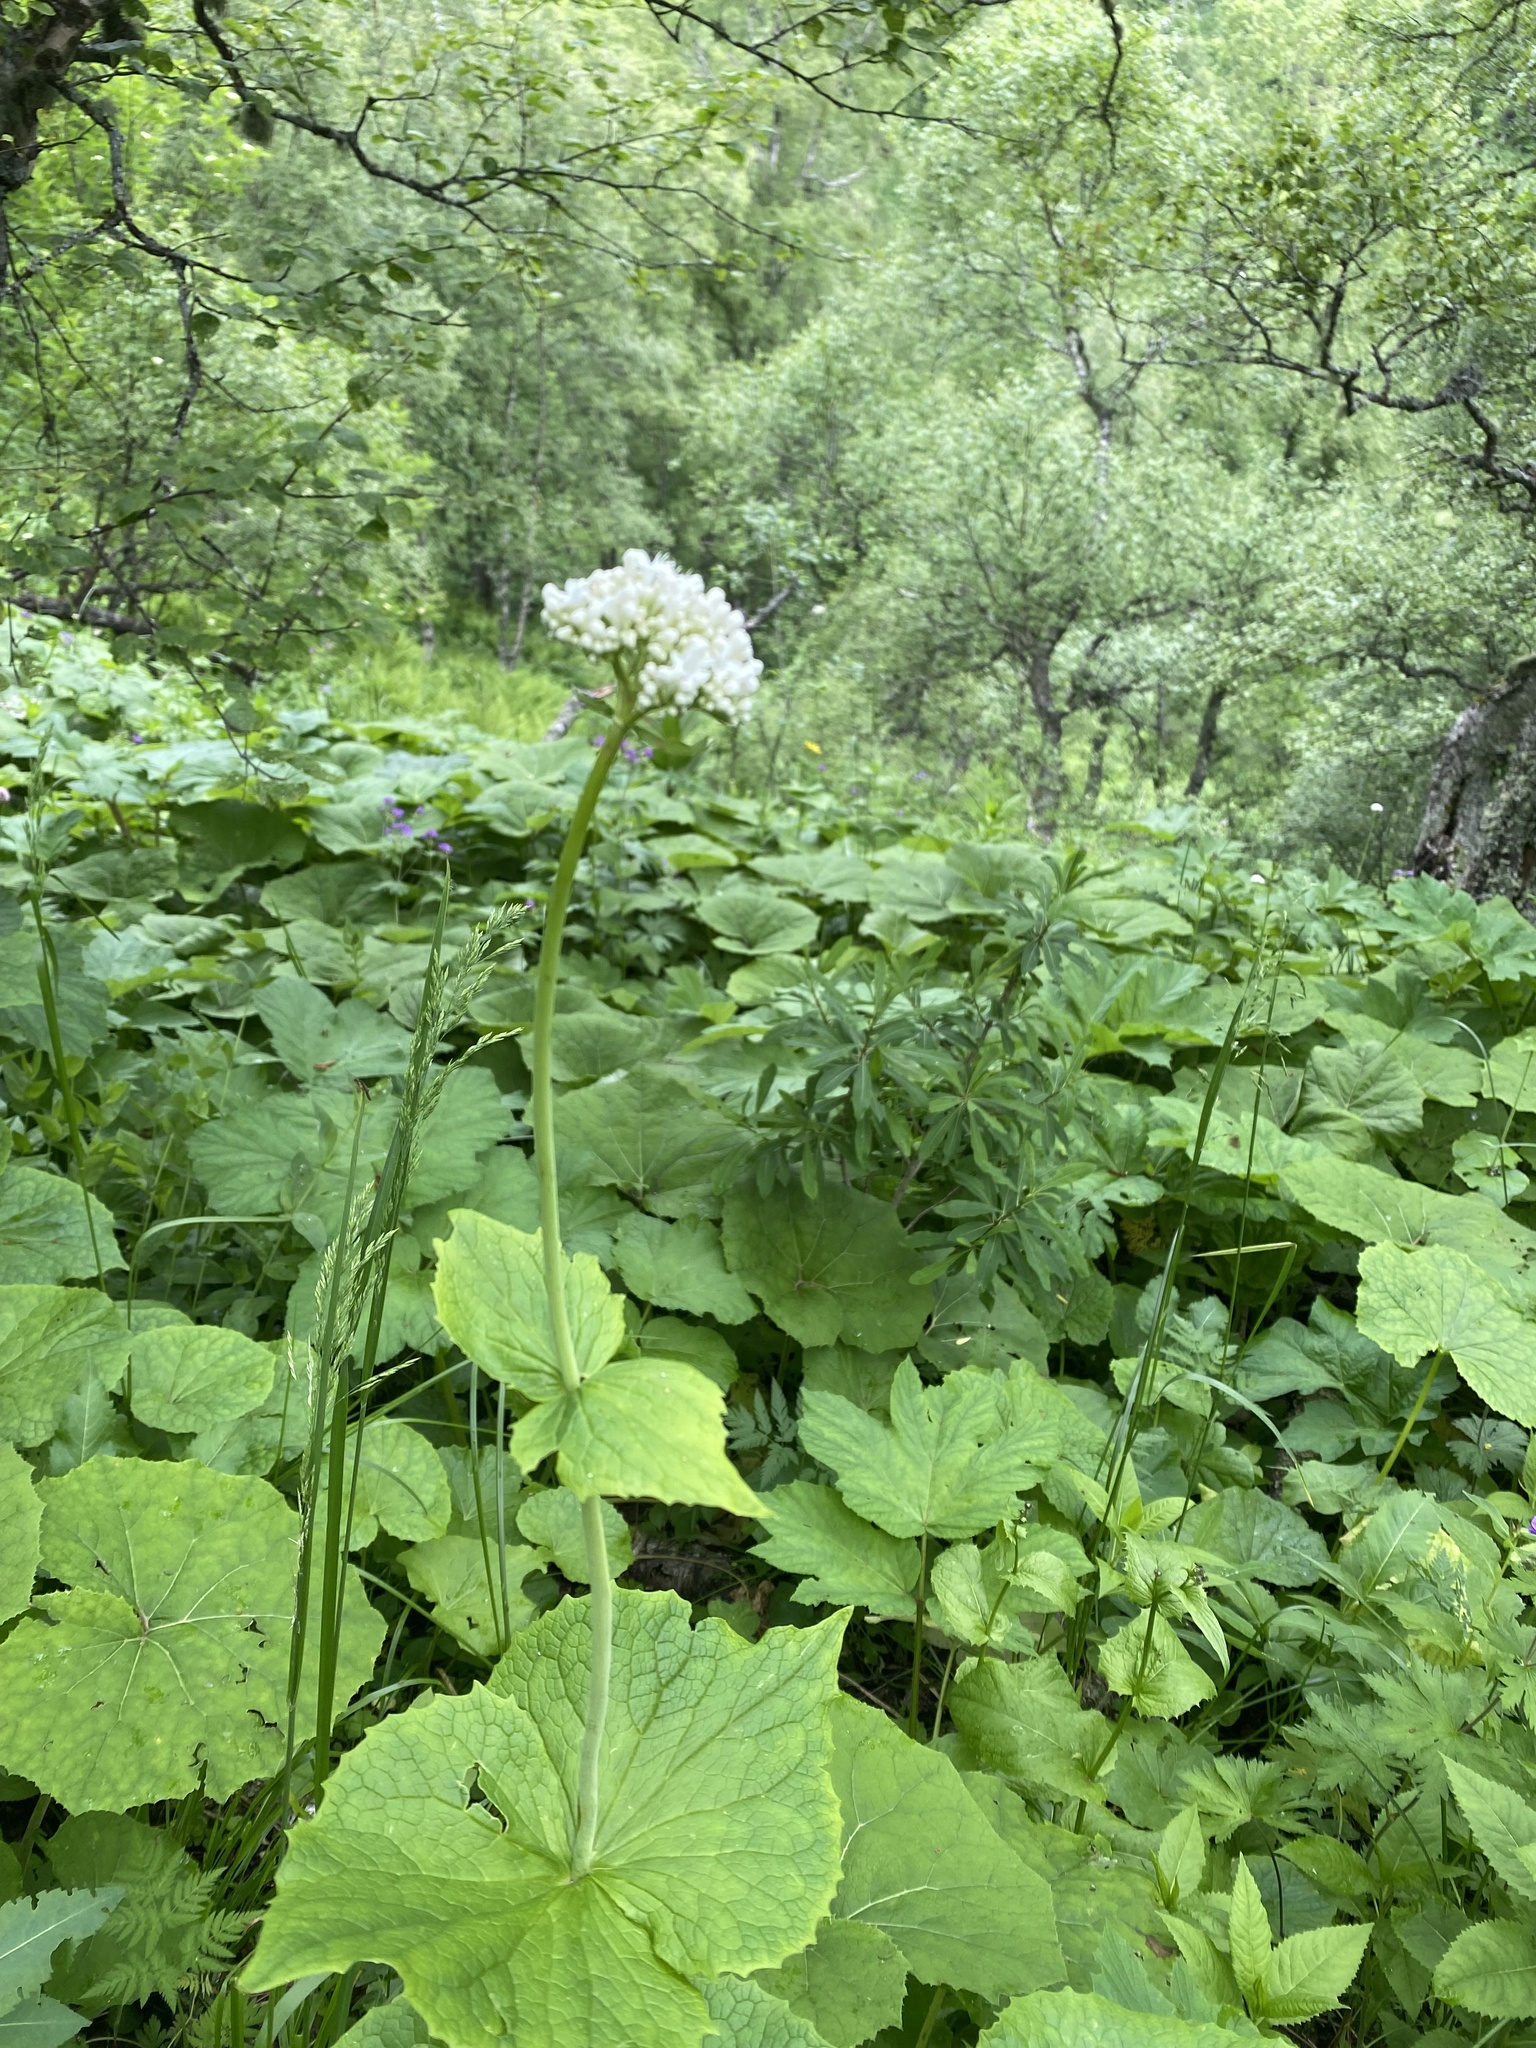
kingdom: Plantae
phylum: Tracheophyta
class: Magnoliopsida
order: Dipsacales
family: Caprifoliaceae
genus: Valeriana
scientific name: Valeriana alliariifolia
